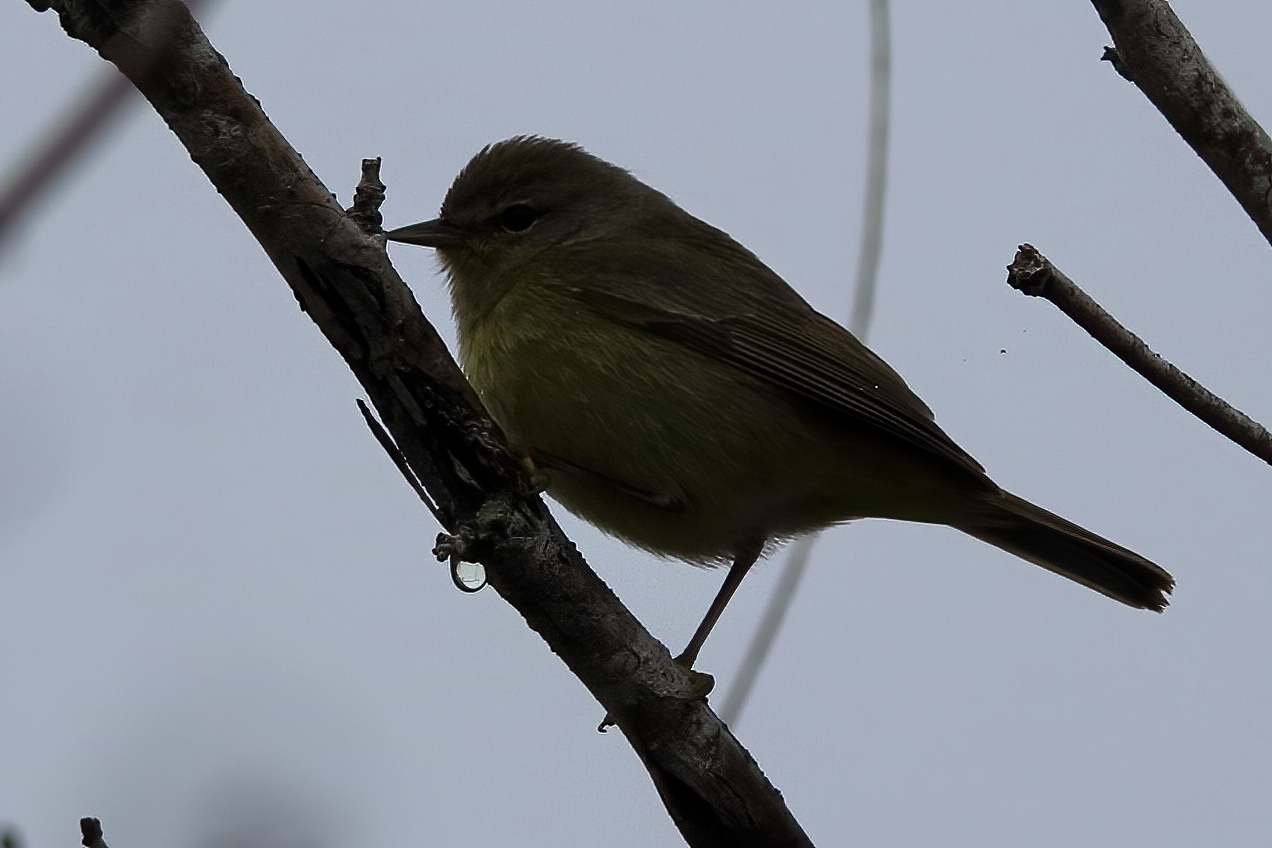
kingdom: Animalia
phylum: Chordata
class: Aves
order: Passeriformes
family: Parulidae
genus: Leiothlypis
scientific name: Leiothlypis celata
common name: Orange-crowned warbler
